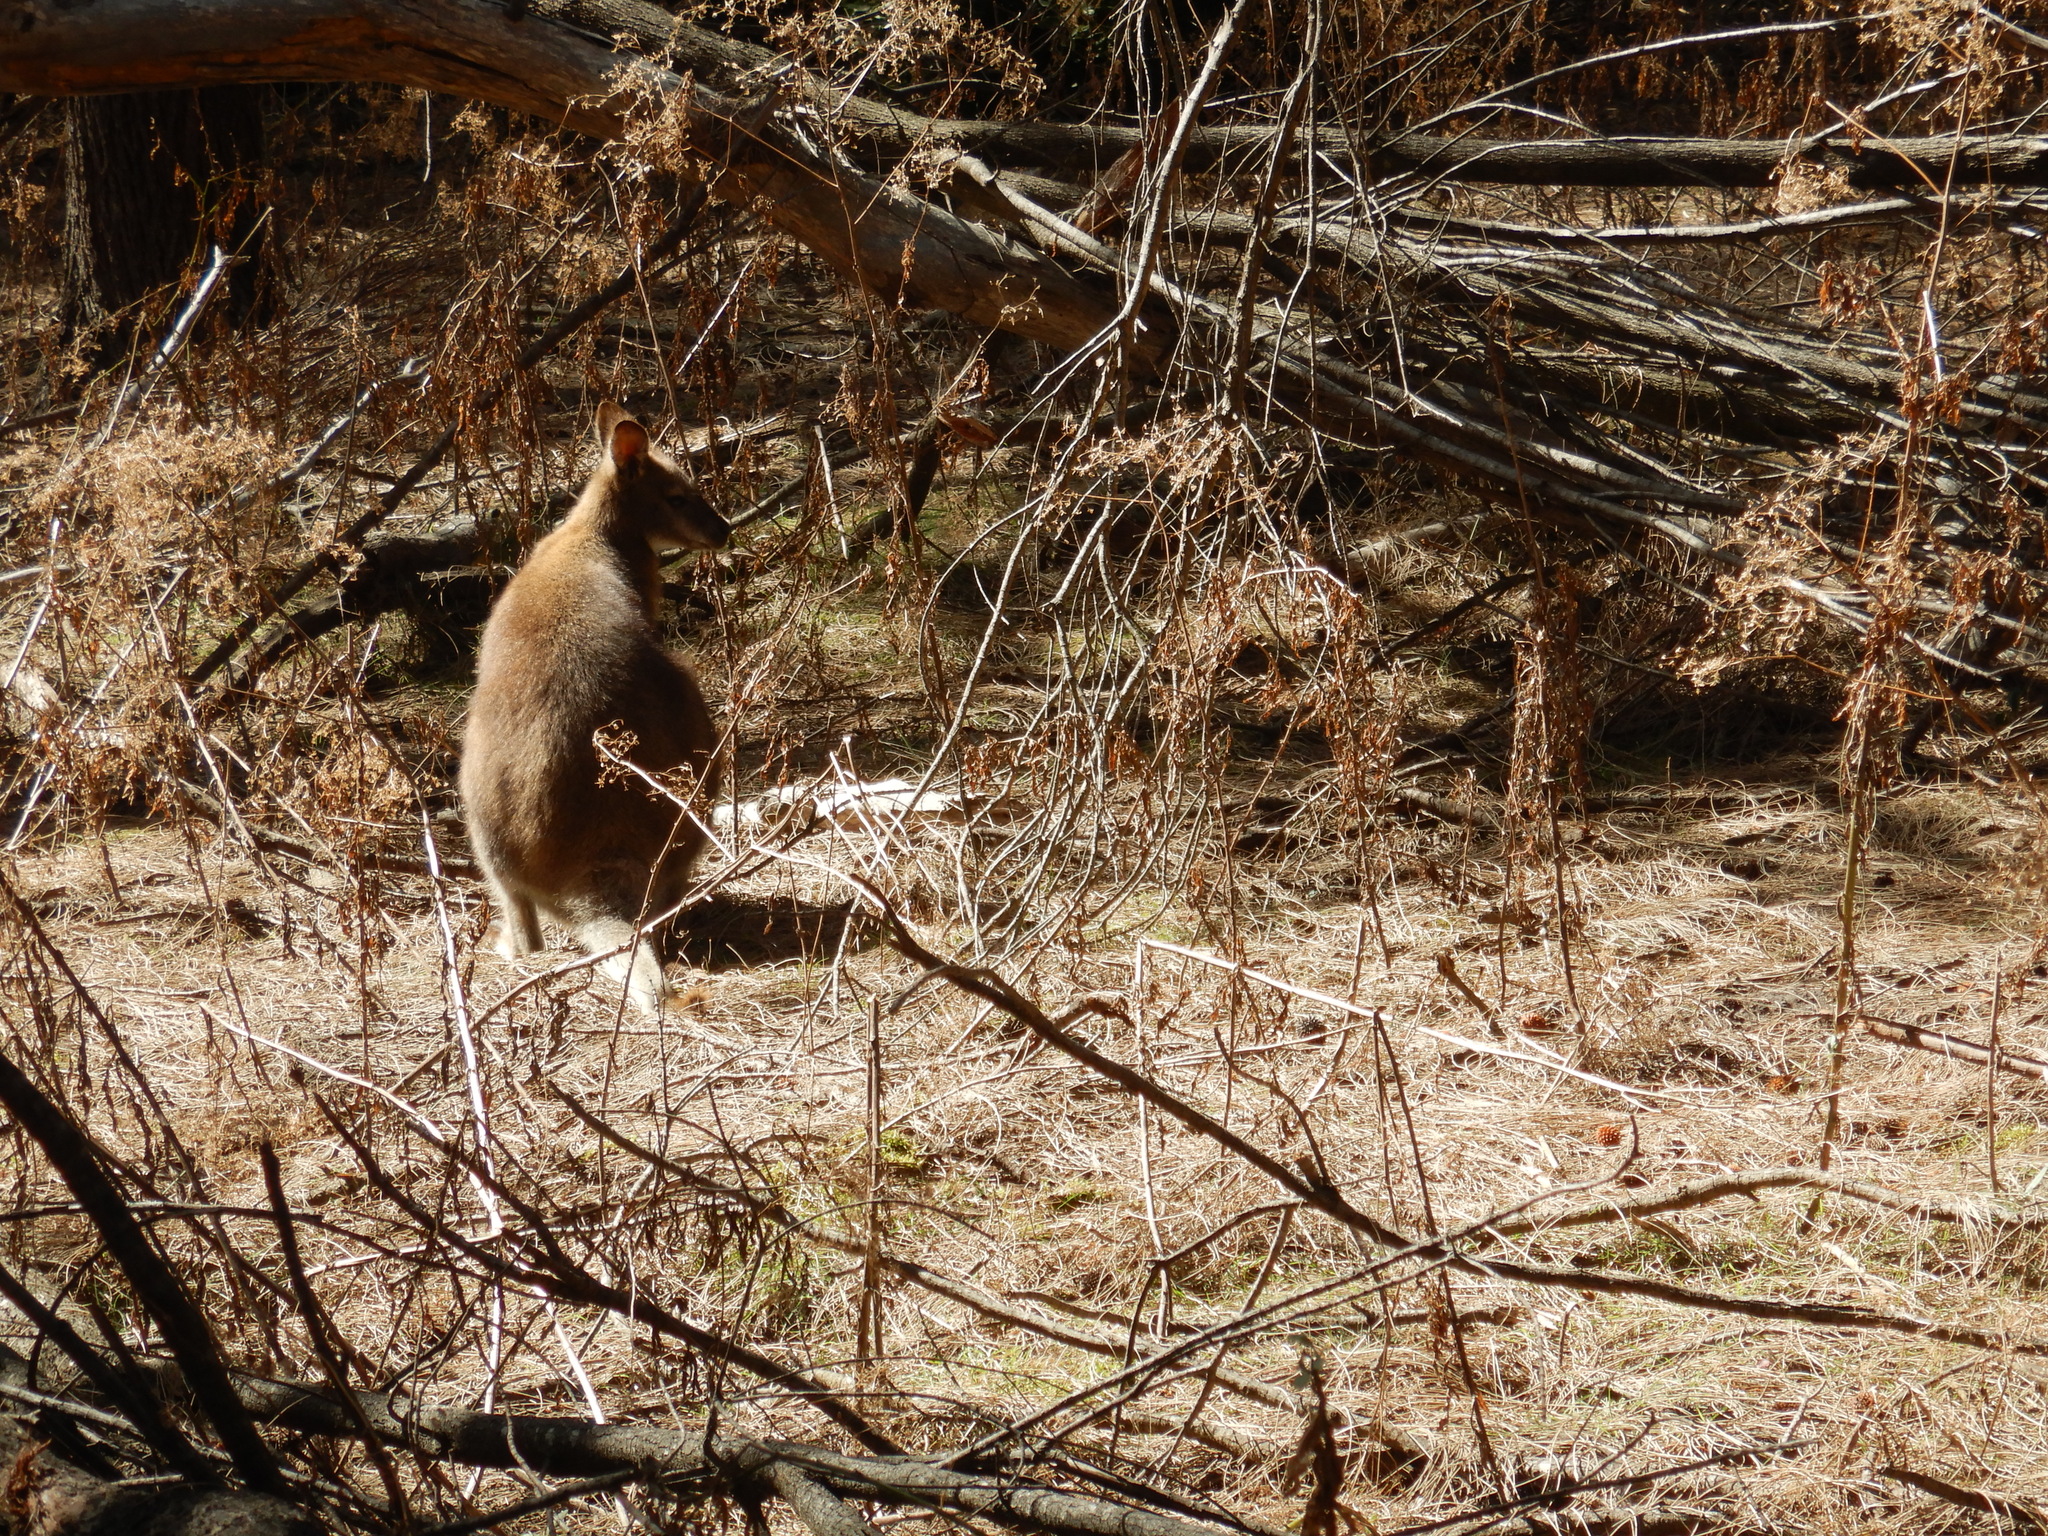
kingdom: Animalia
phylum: Chordata
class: Mammalia
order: Diprotodontia
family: Macropodidae
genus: Notamacropus
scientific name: Notamacropus rufogriseus
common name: Red-necked wallaby
